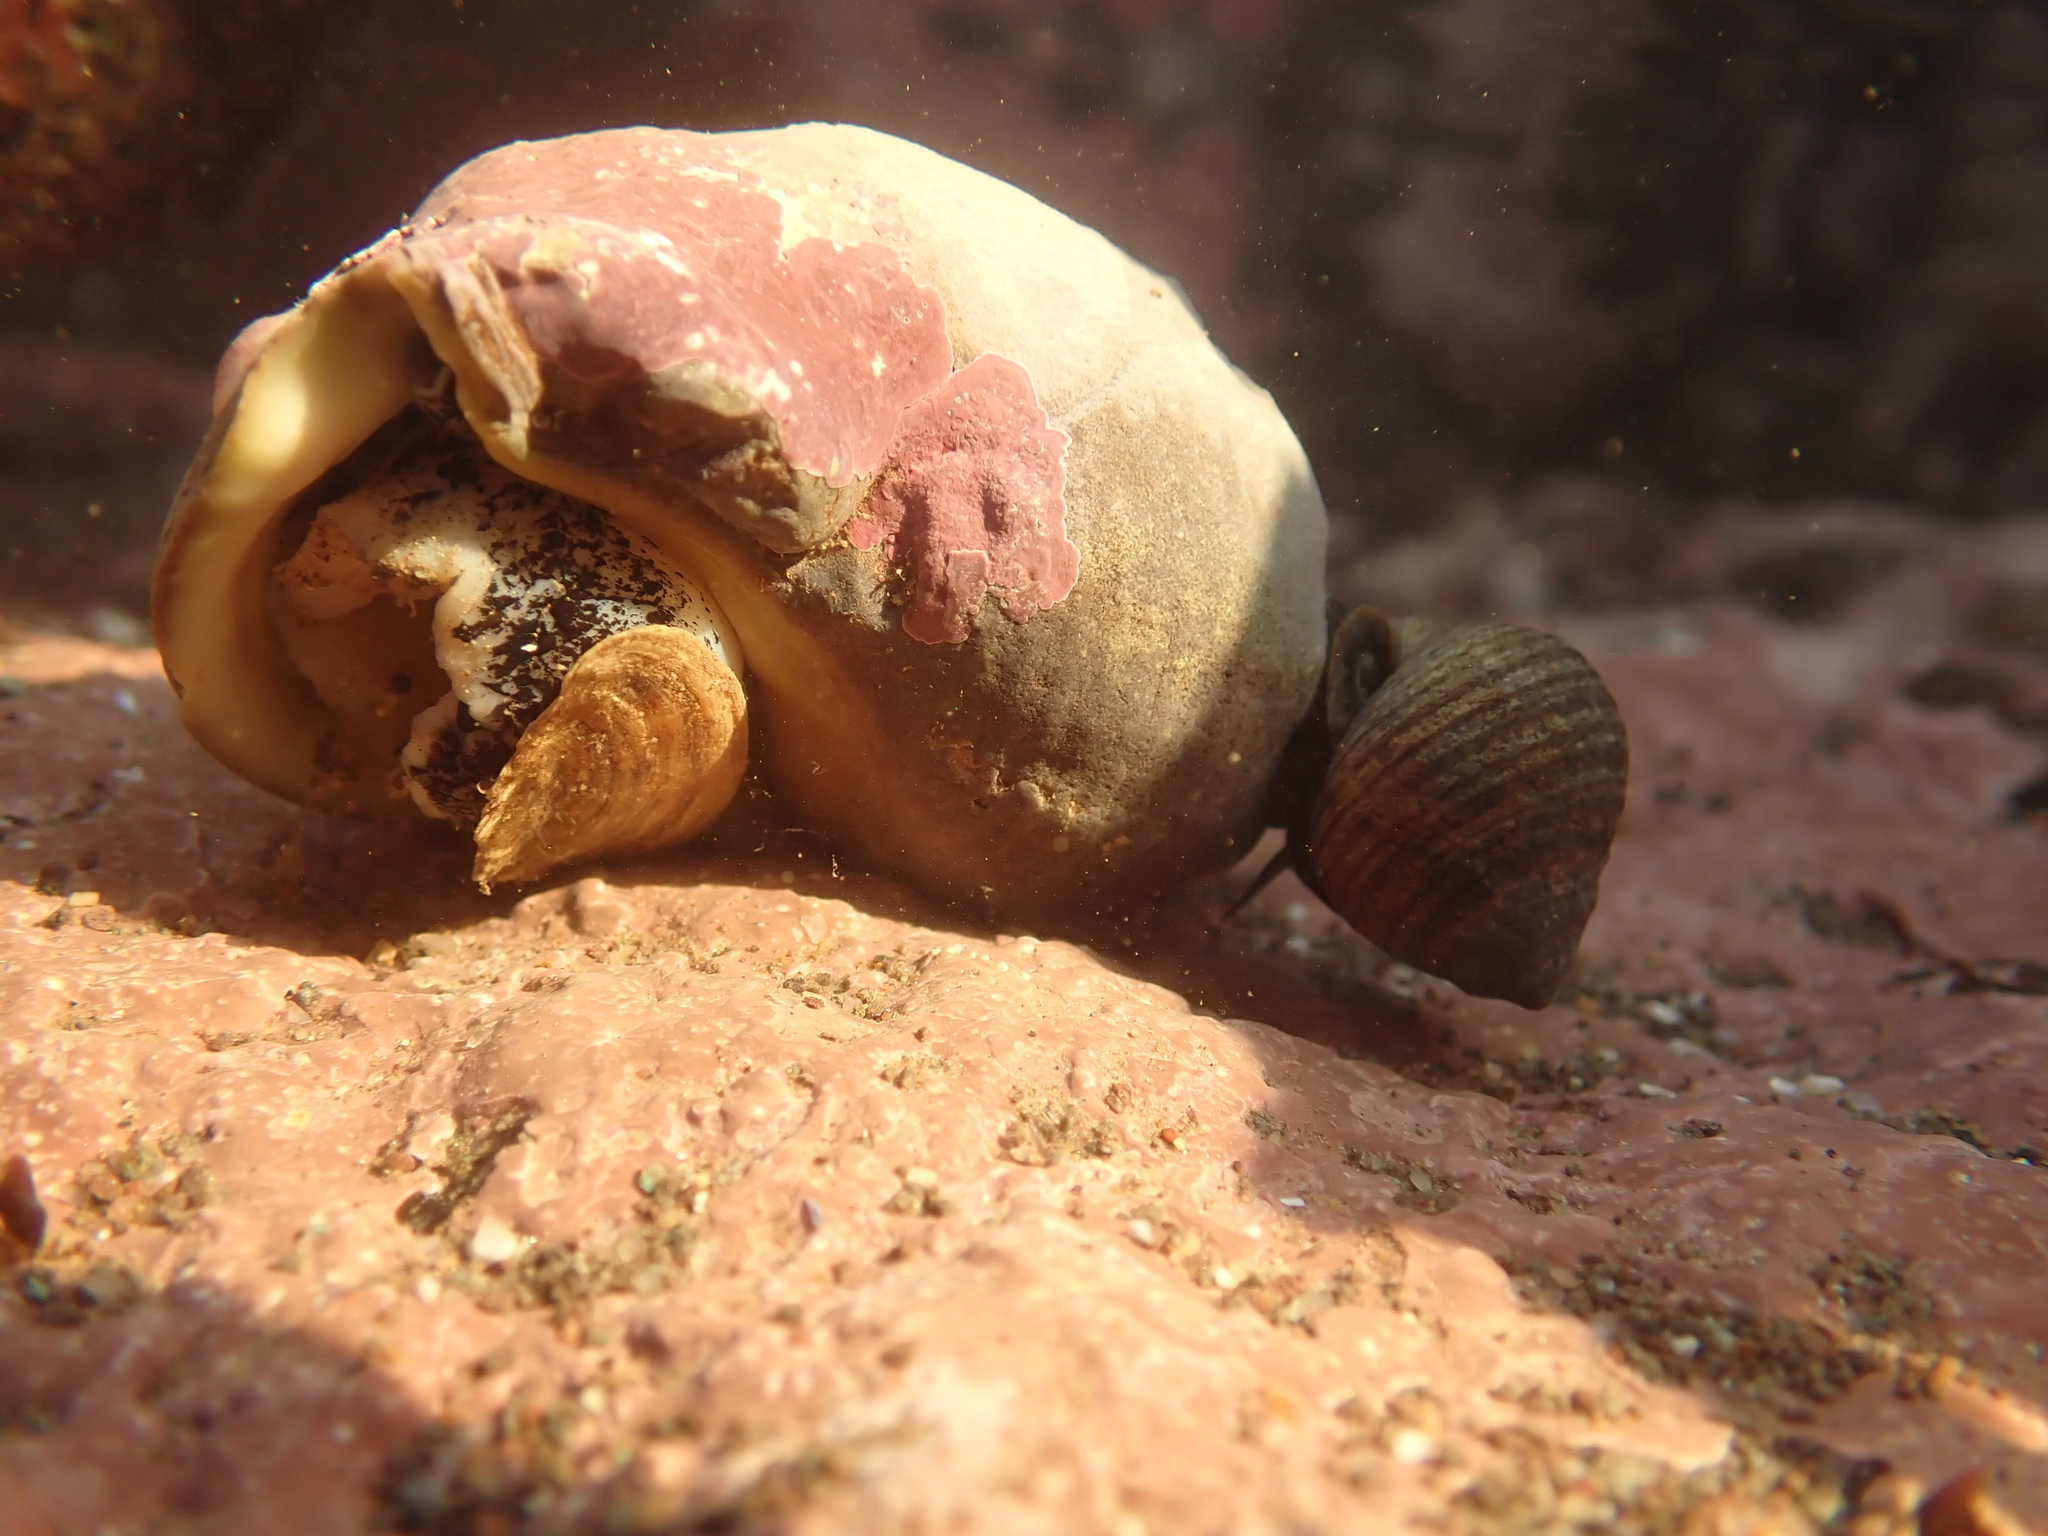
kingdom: Animalia
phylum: Mollusca
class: Gastropoda
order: Neogastropoda
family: Buccinidae
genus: Buccinum
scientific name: Buccinum undatum
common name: Common whelk
